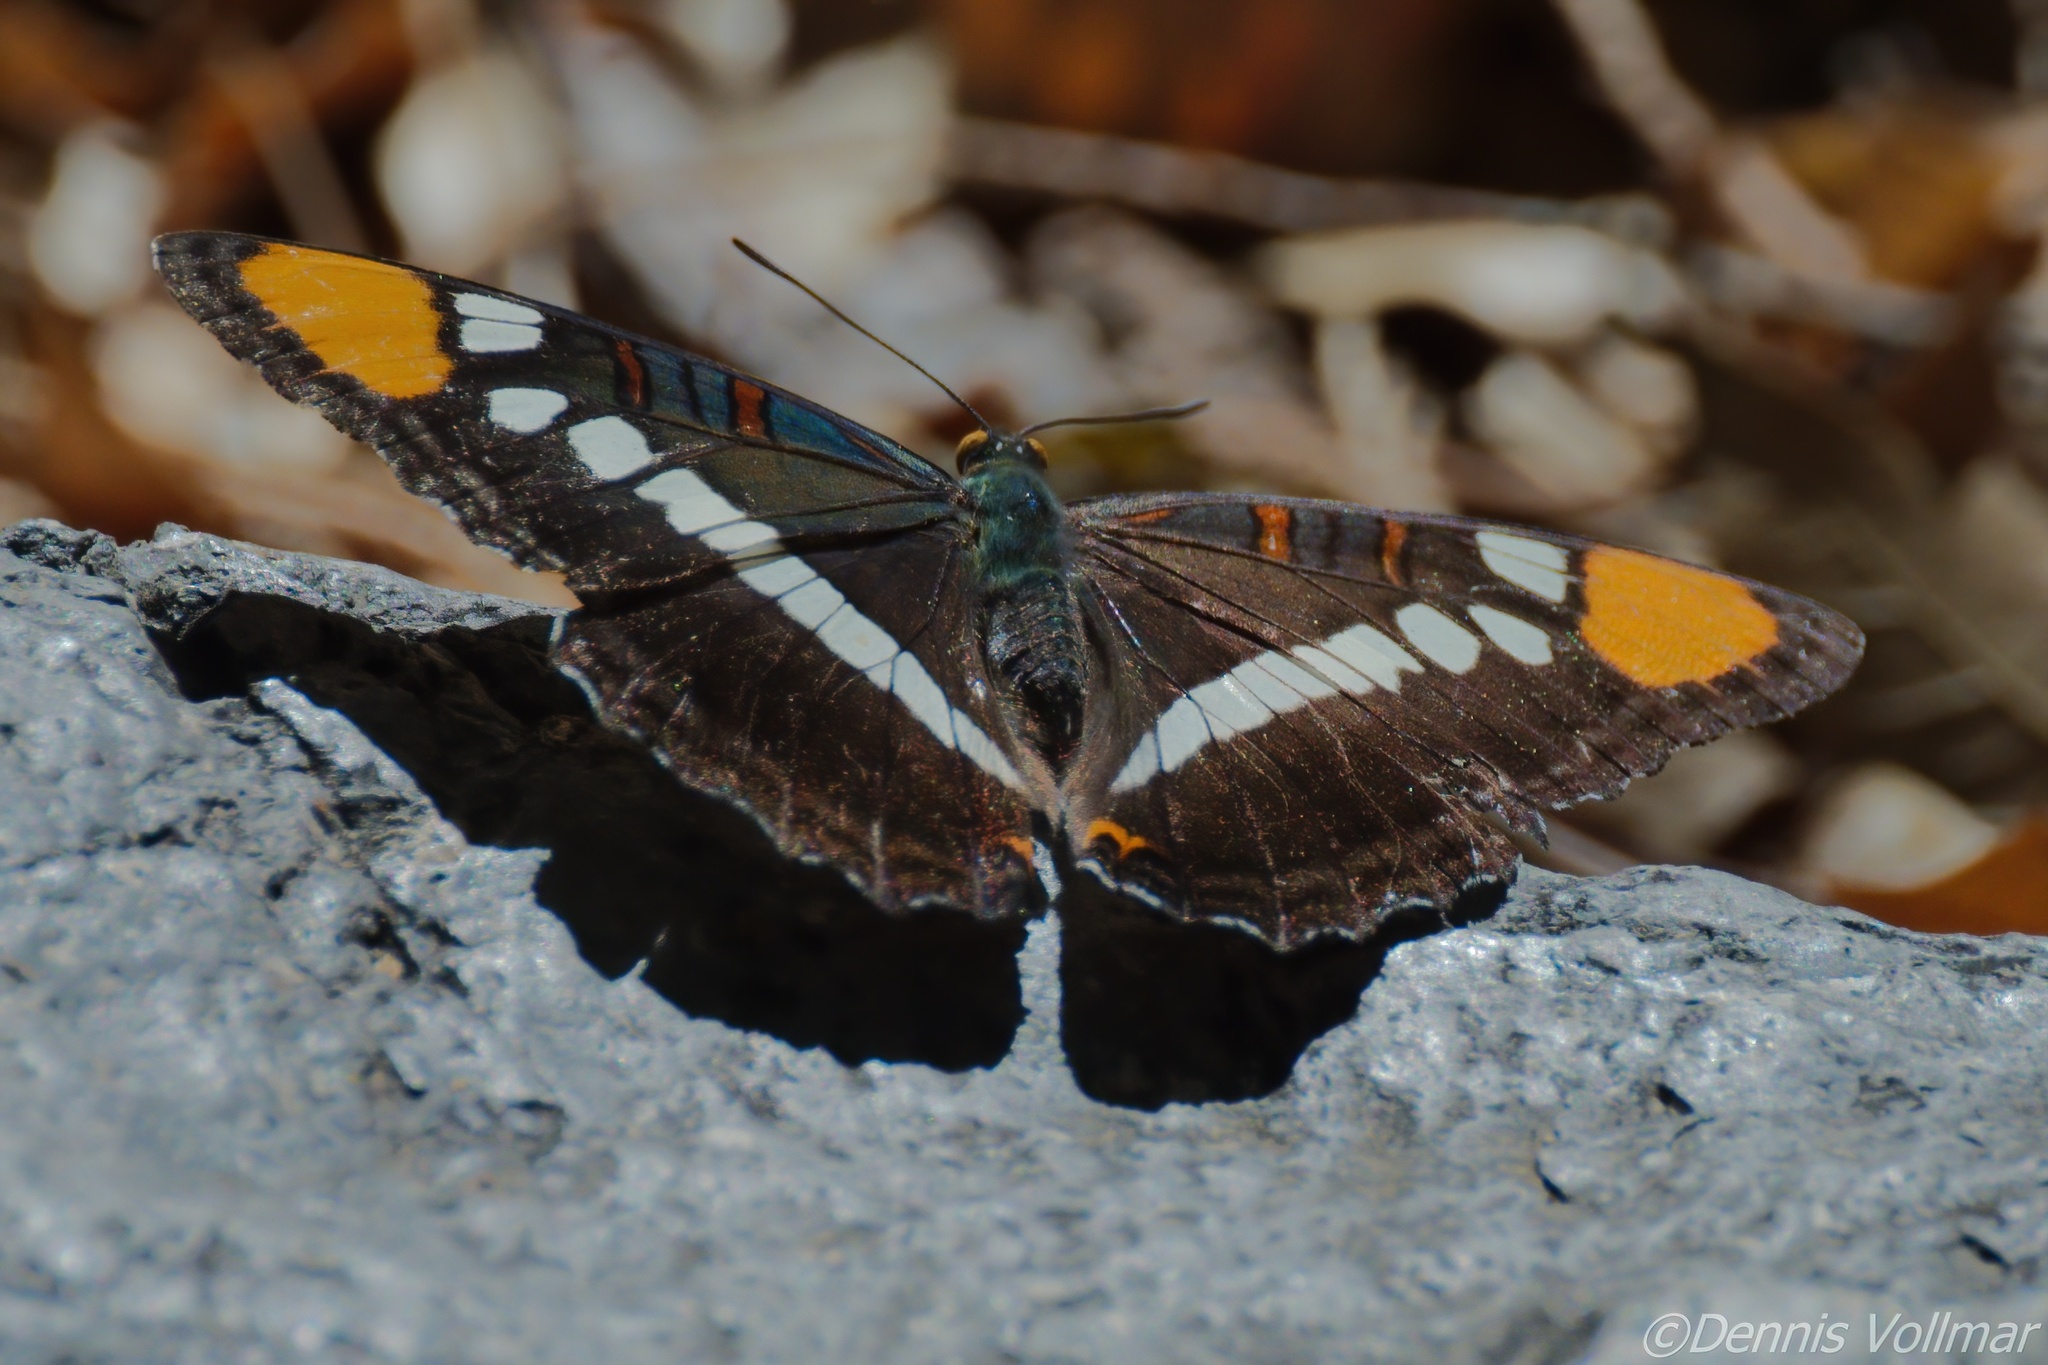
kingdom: Animalia
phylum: Arthropoda
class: Insecta
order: Lepidoptera
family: Nymphalidae
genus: Limenitis
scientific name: Limenitis bredowii
